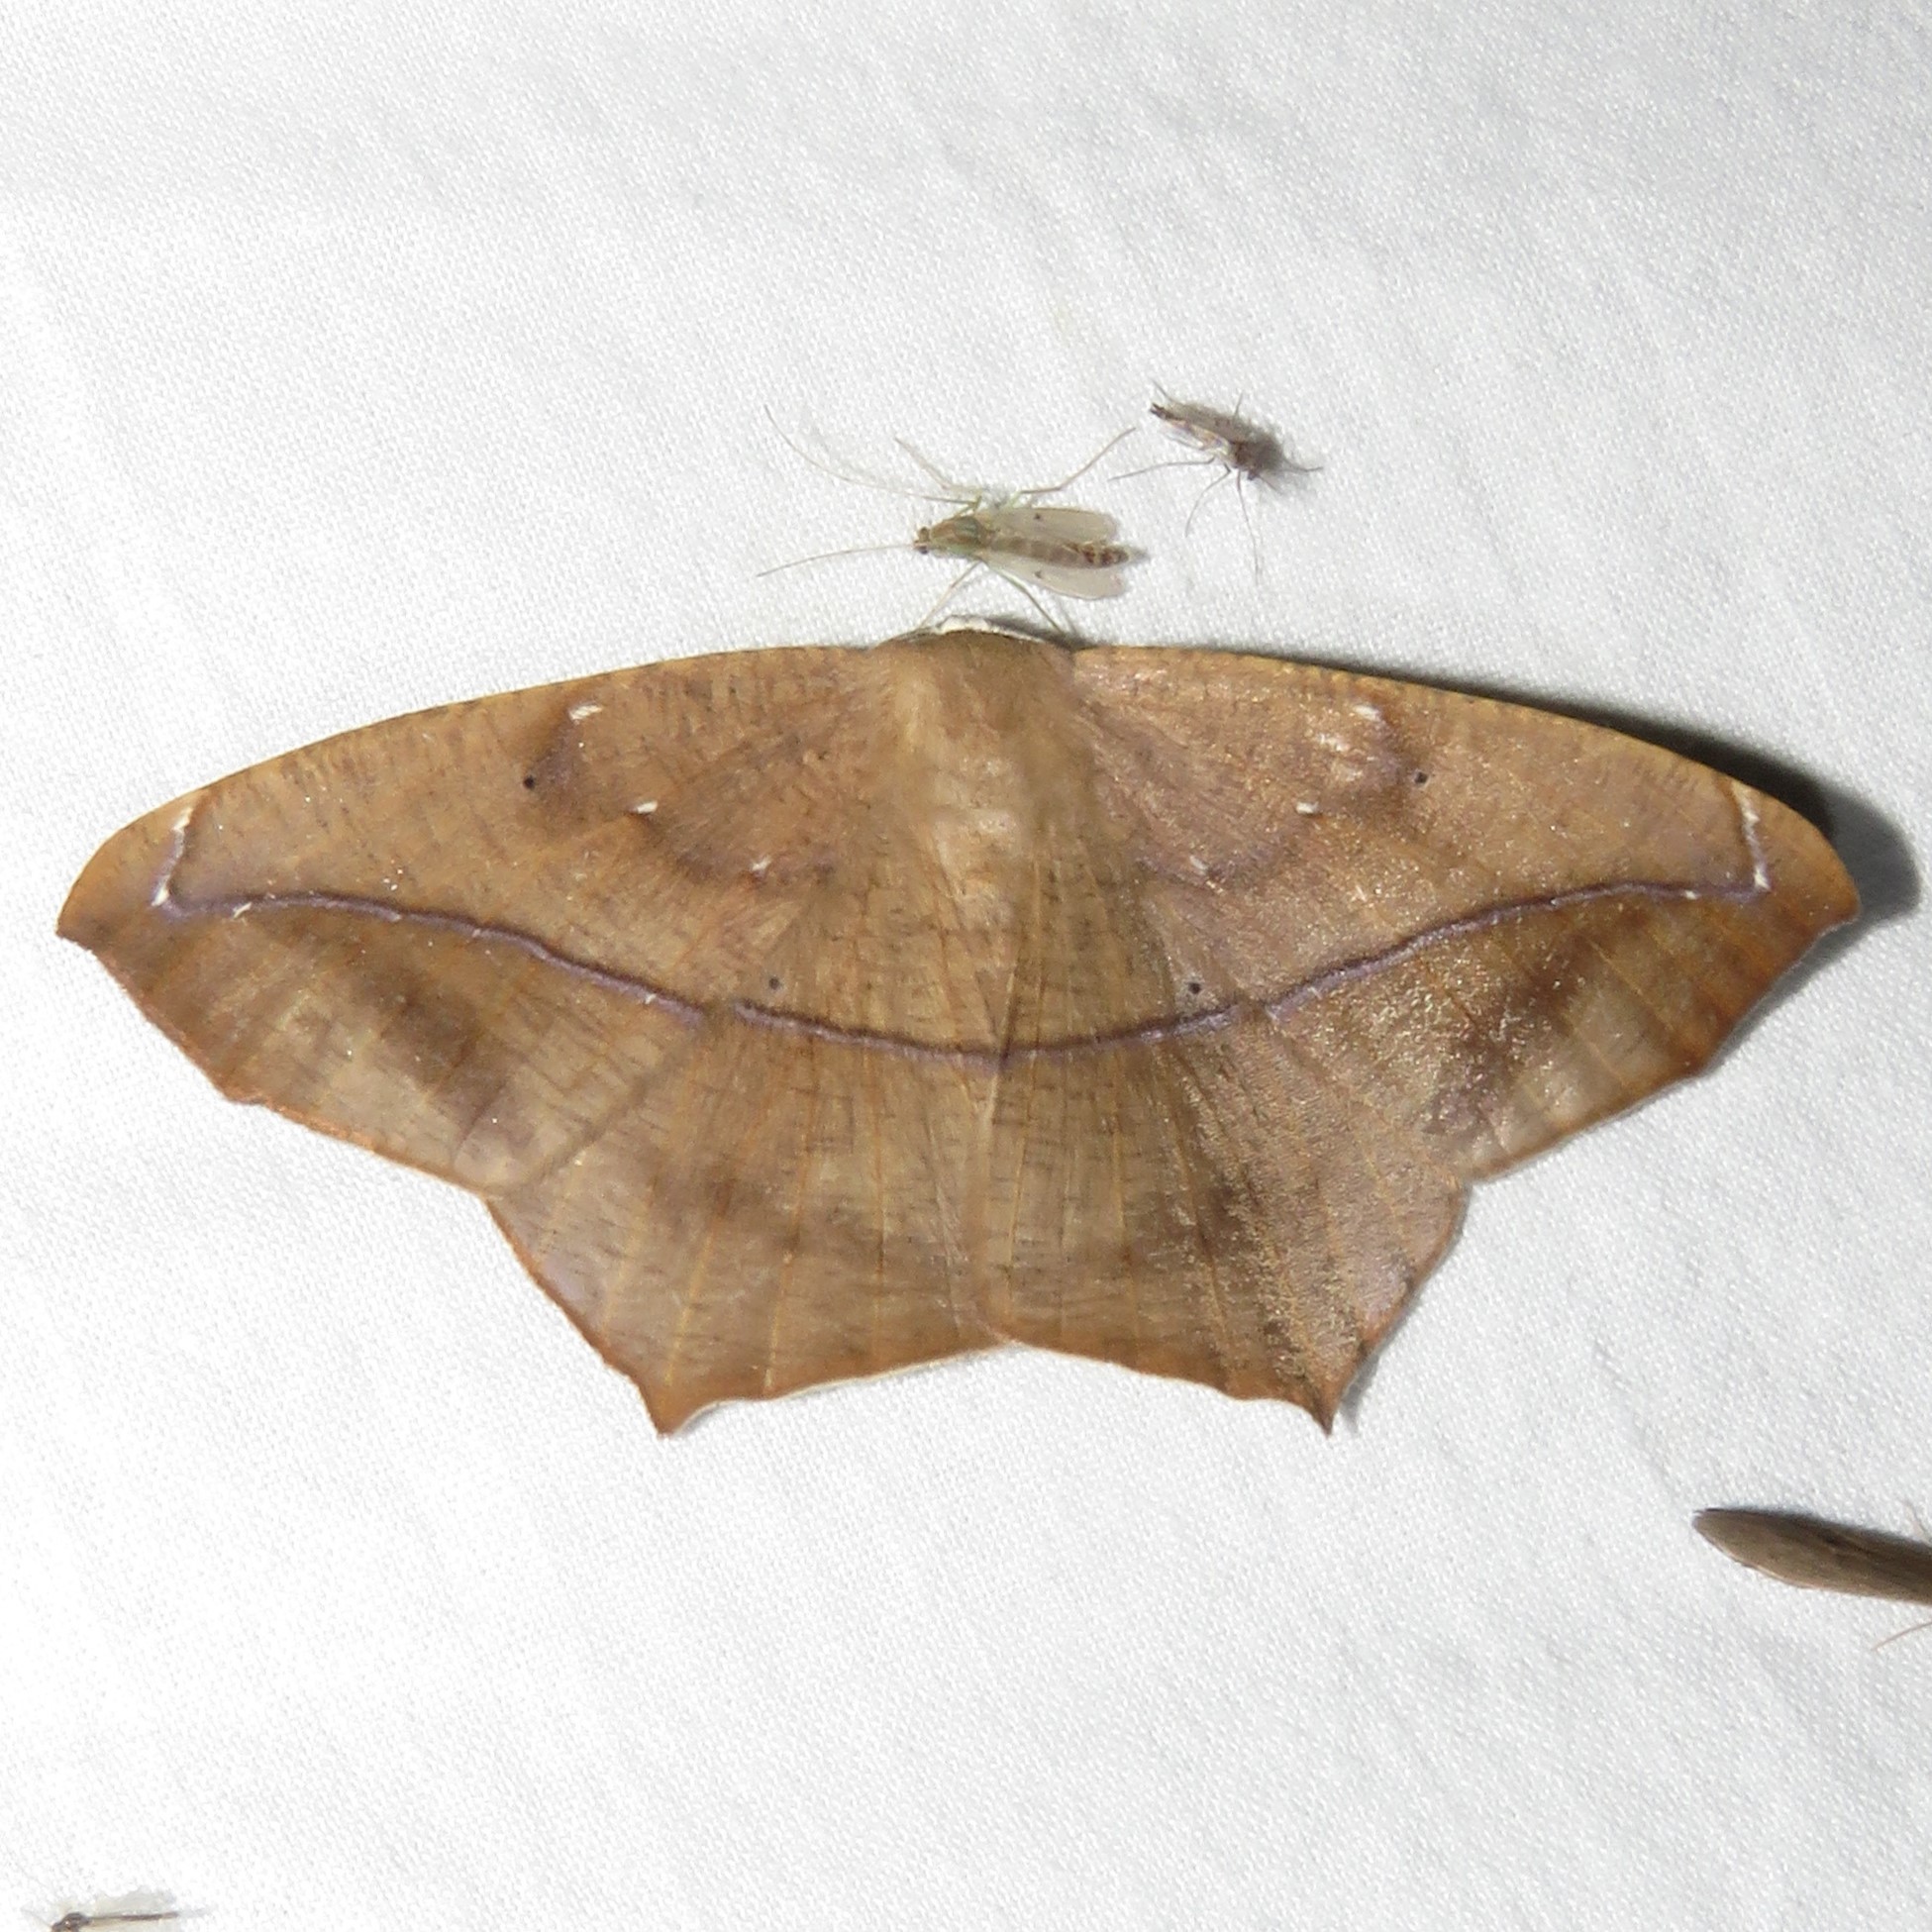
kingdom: Animalia
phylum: Arthropoda
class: Insecta
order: Lepidoptera
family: Geometridae
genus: Prochoerodes
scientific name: Prochoerodes lineola
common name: Large maple spanworm
